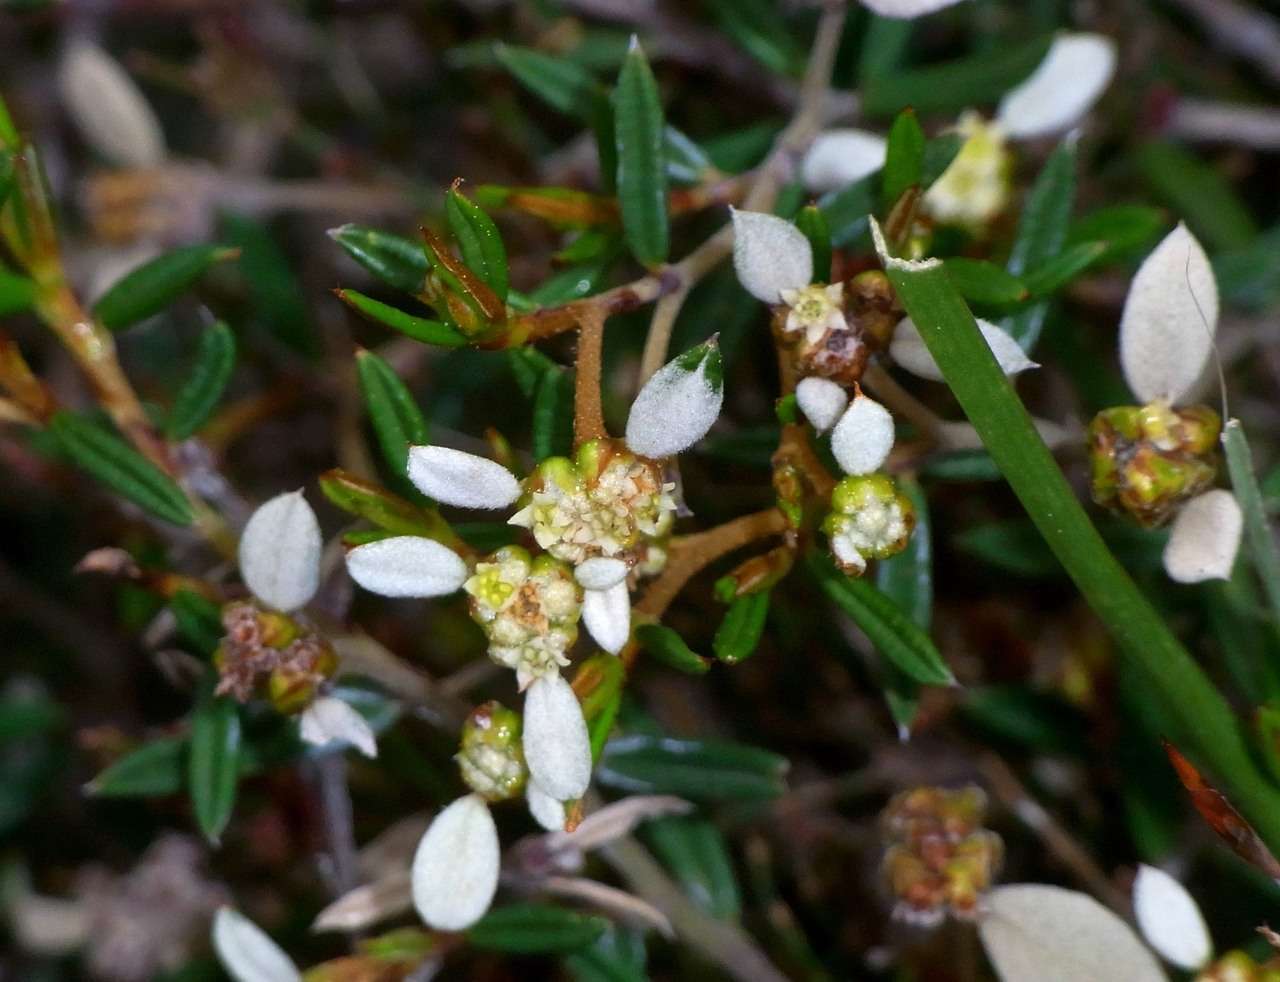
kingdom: Plantae
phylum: Tracheophyta
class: Magnoliopsida
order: Rosales
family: Rhamnaceae
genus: Spyridium
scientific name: Spyridium vexilliferum
